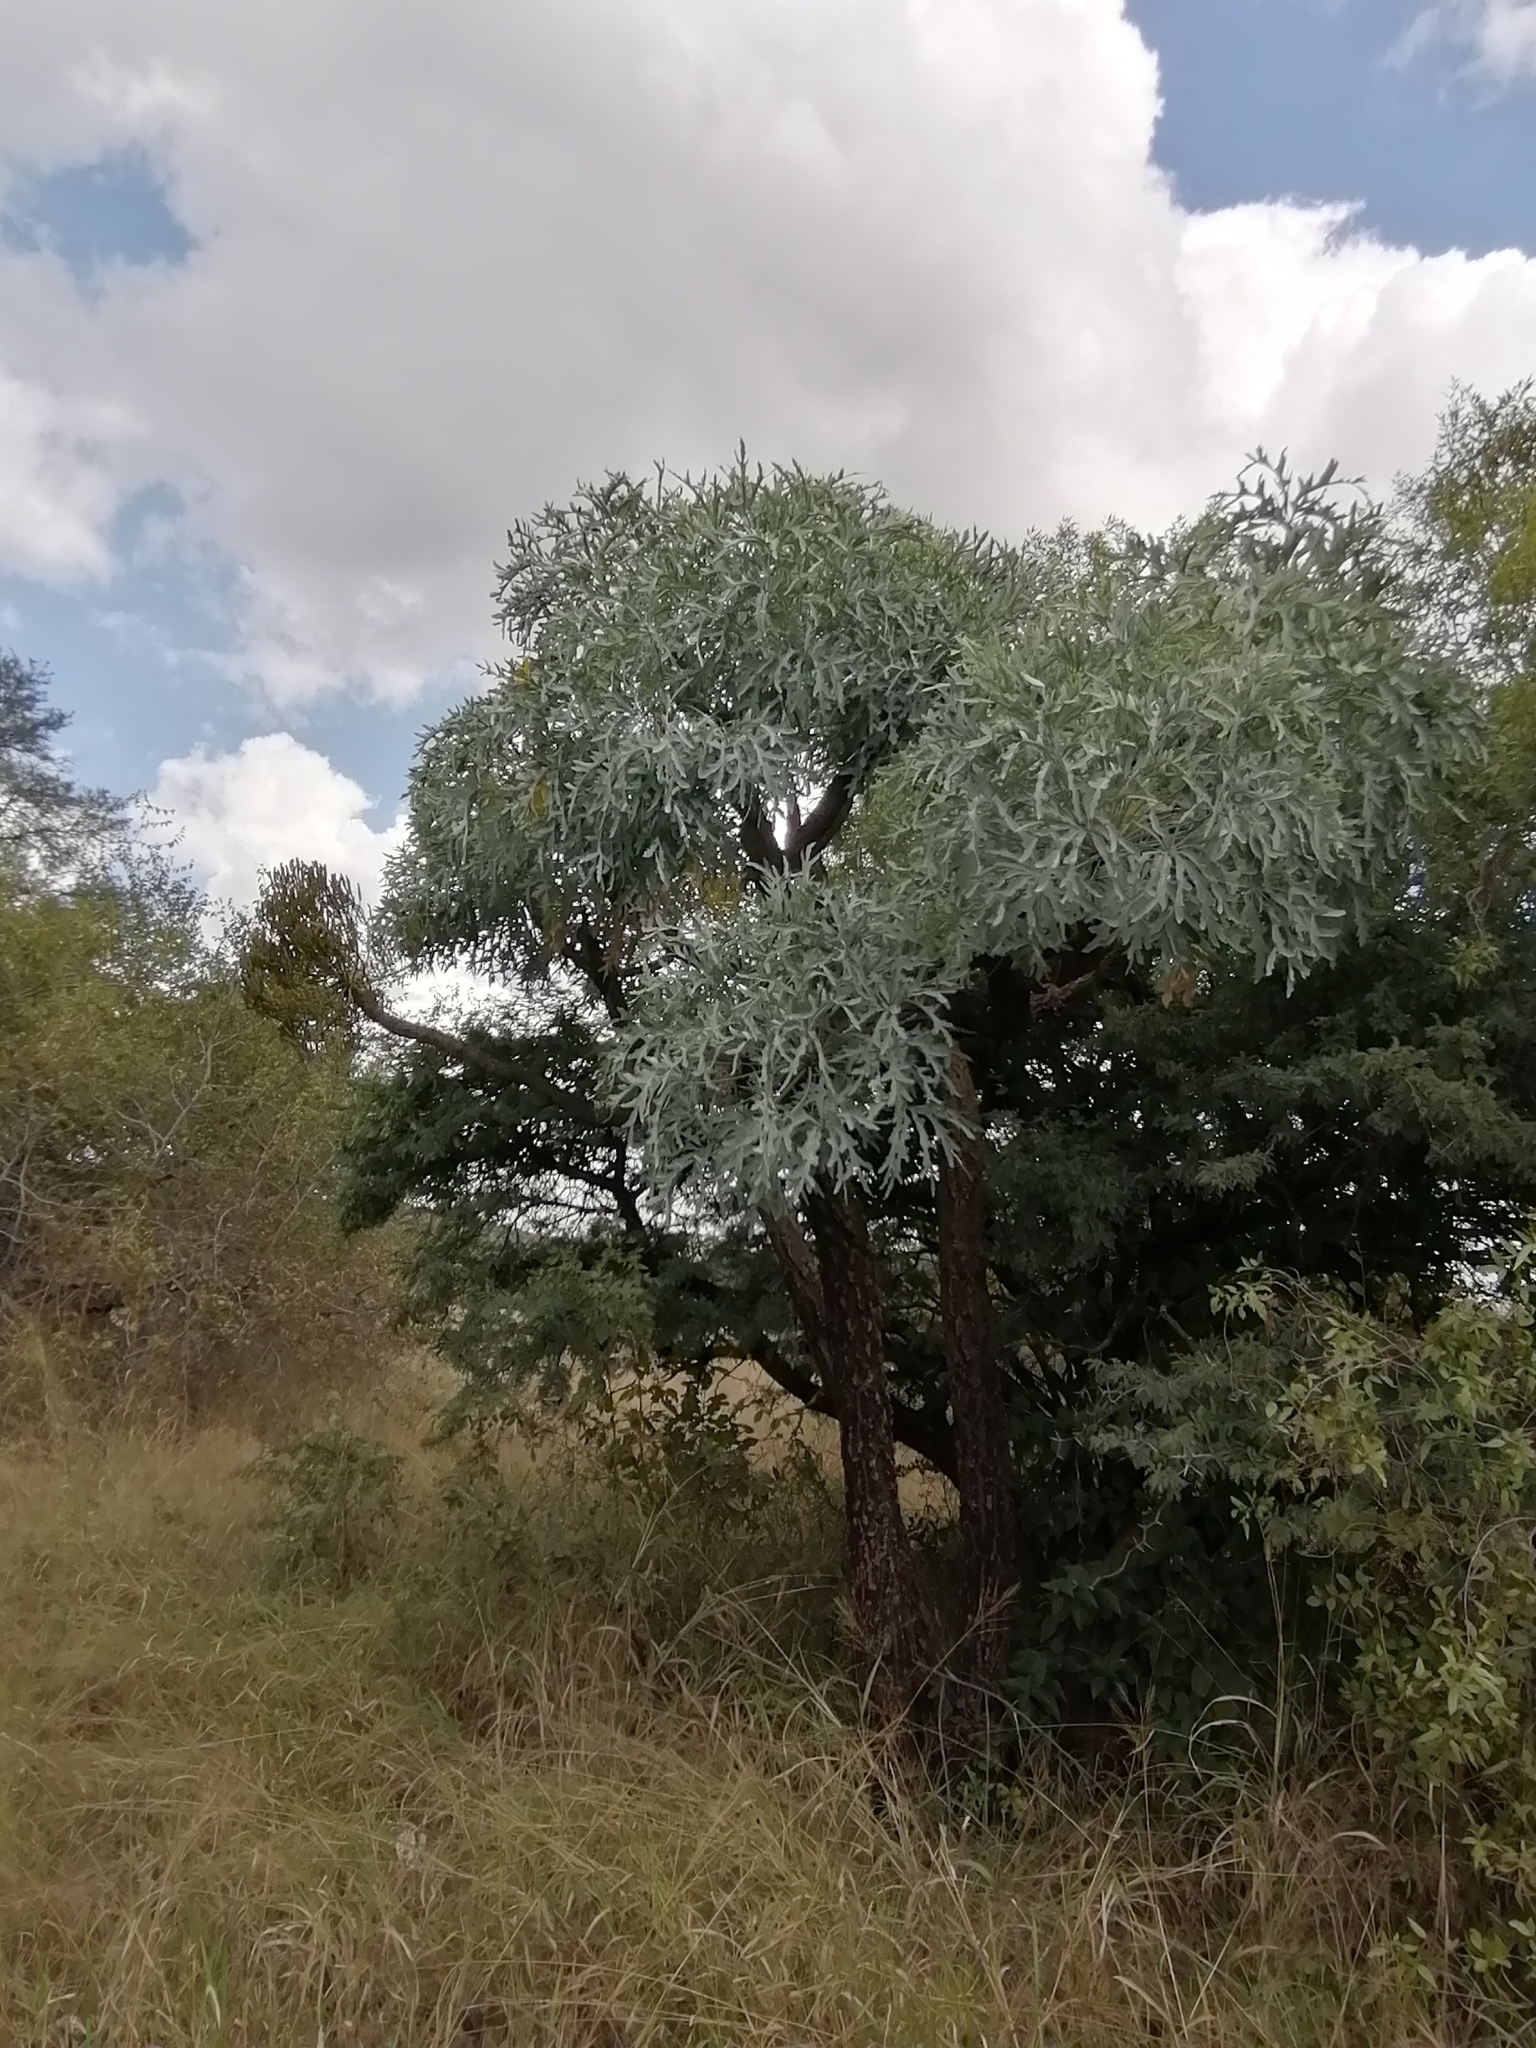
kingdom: Plantae
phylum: Tracheophyta
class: Magnoliopsida
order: Apiales
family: Araliaceae
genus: Cussonia
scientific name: Cussonia paniculata
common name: Cabbagetree
